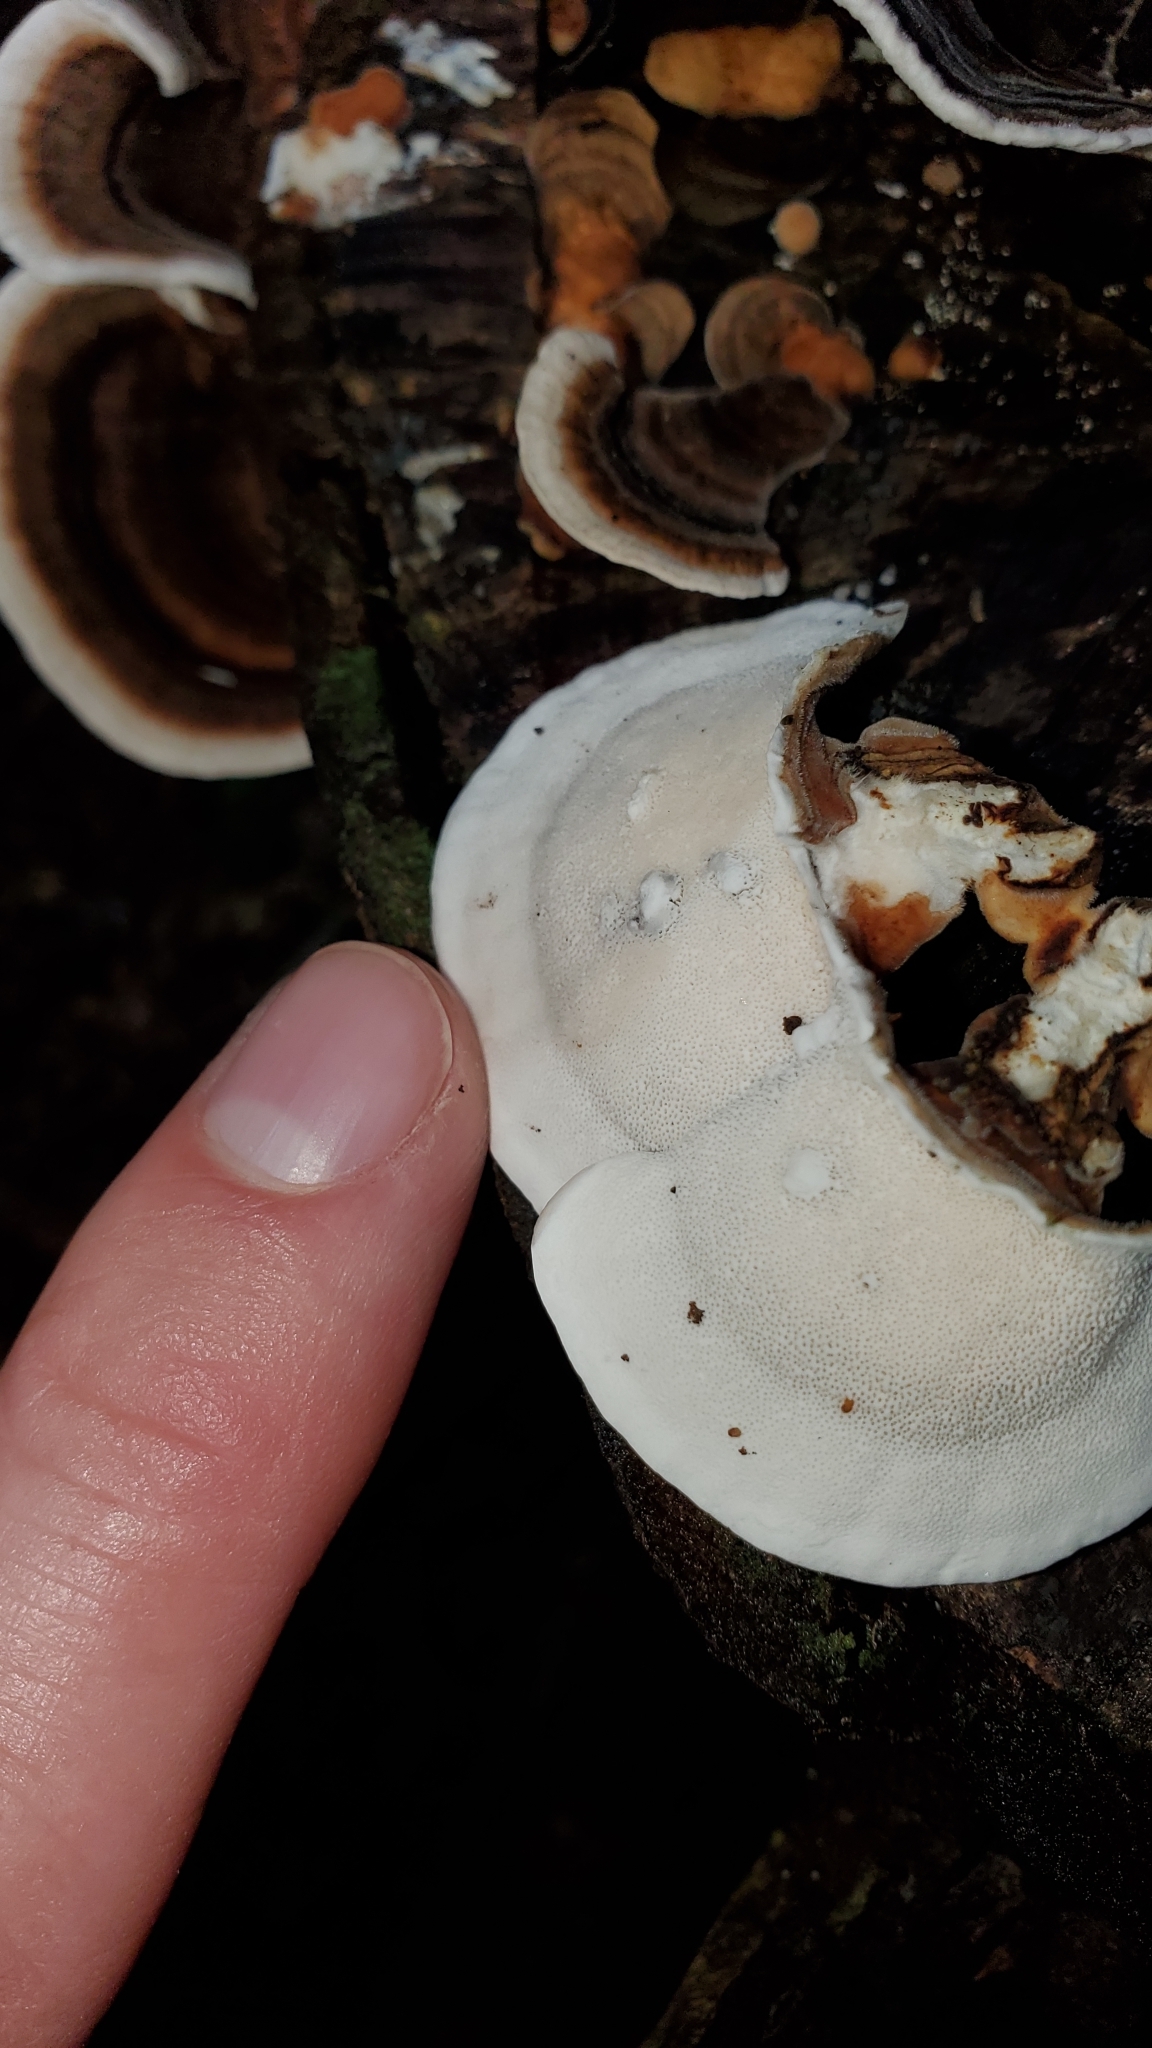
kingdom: Fungi
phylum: Basidiomycota
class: Agaricomycetes
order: Polyporales
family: Polyporaceae
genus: Trametes
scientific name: Trametes versicolor
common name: Turkeytail
